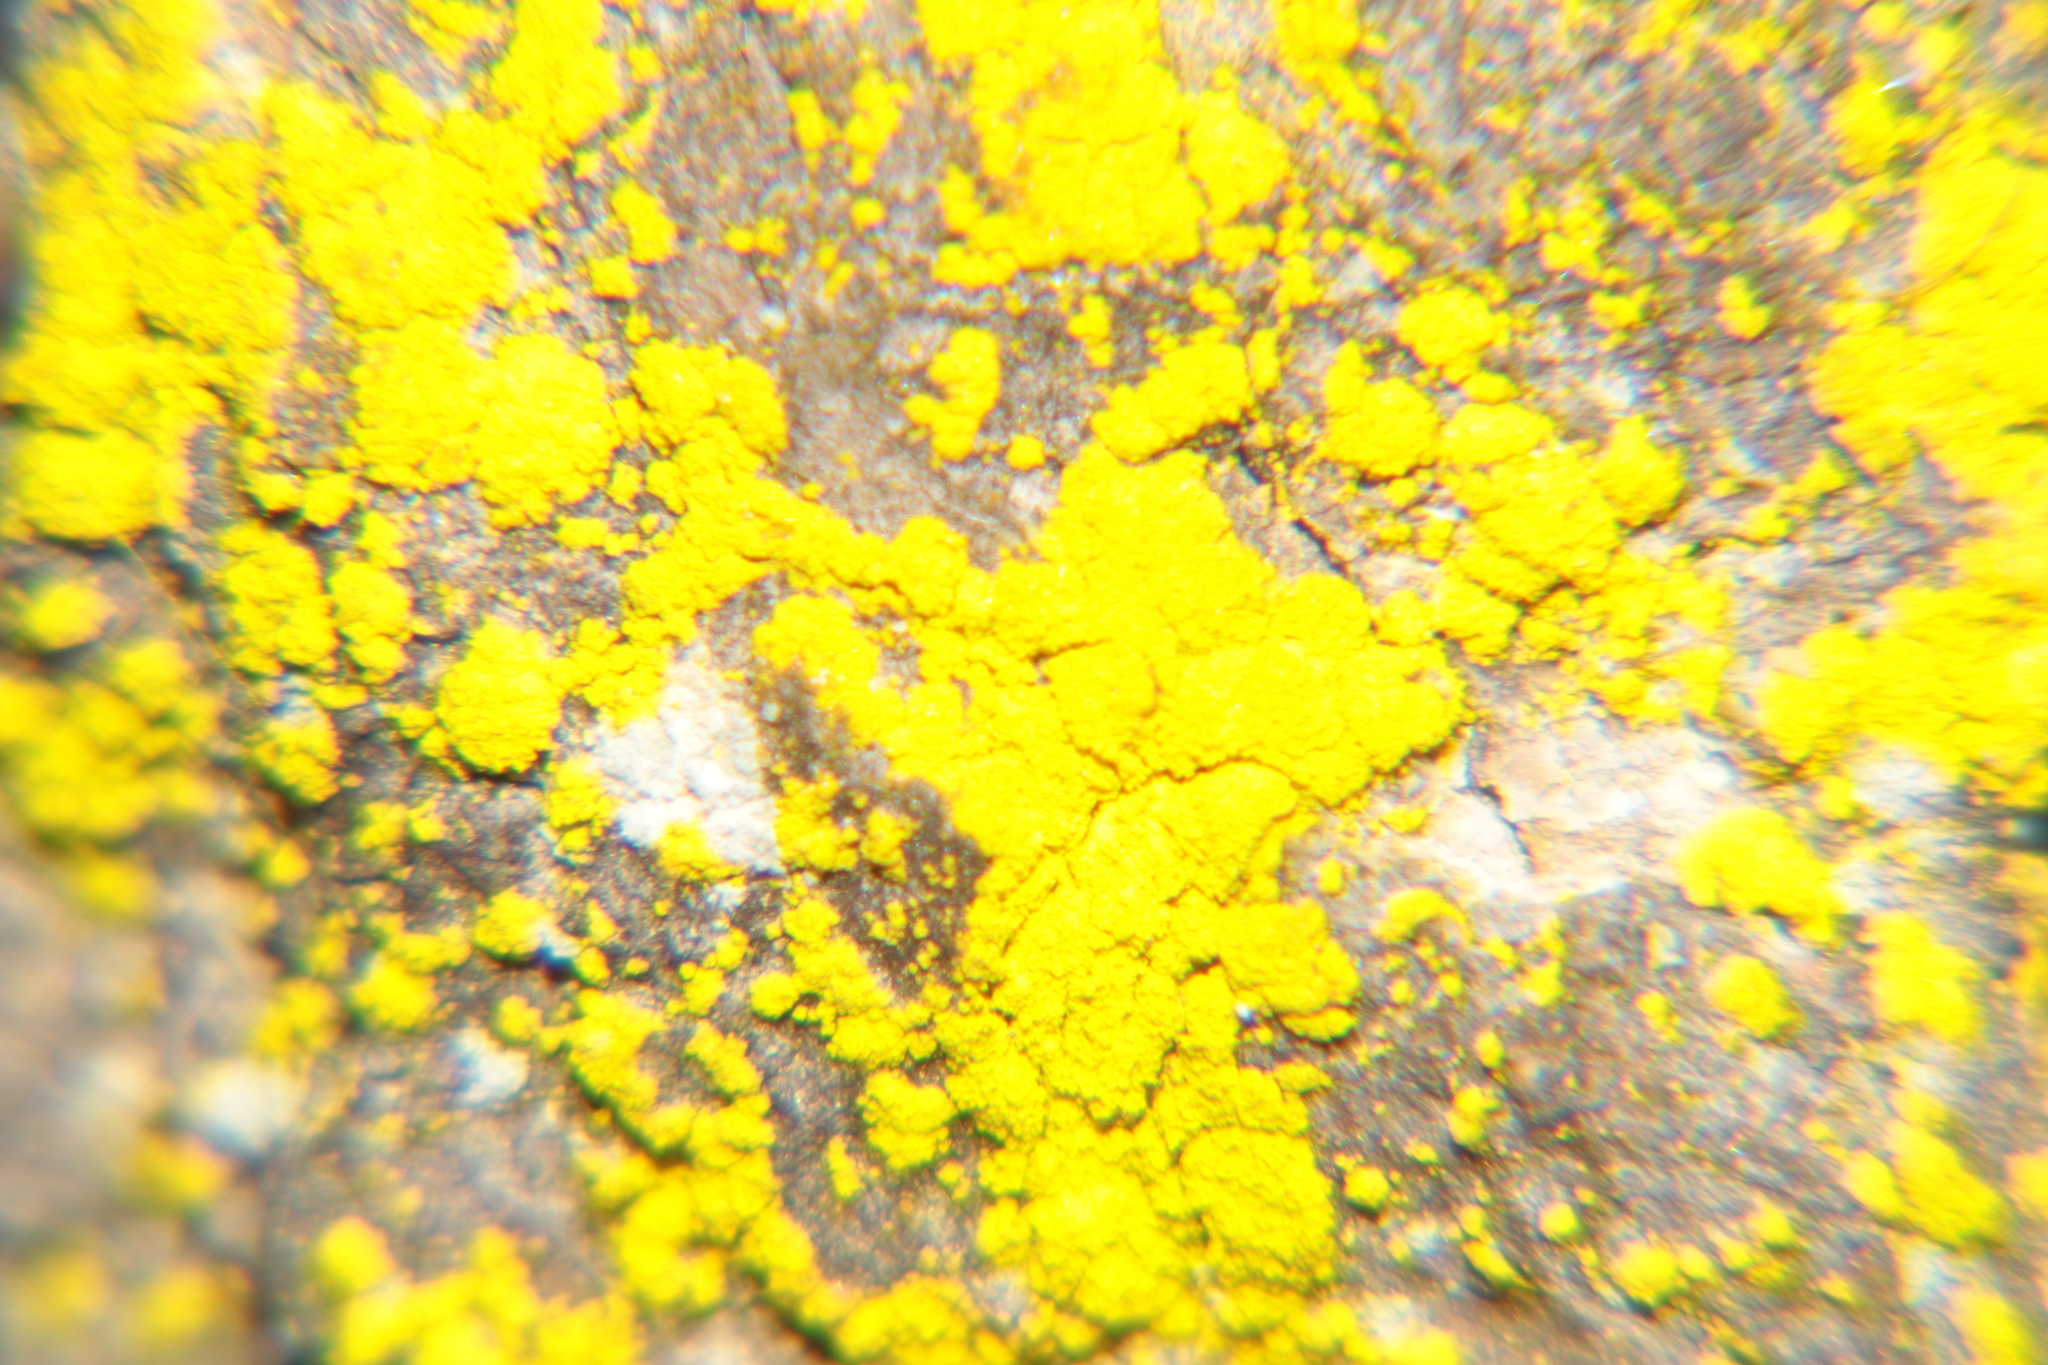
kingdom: Fungi
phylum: Ascomycota
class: Arthoniomycetes
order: Arthoniales
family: Chrysotrichaceae
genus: Chrysothrix
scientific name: Chrysothrix candelaris
